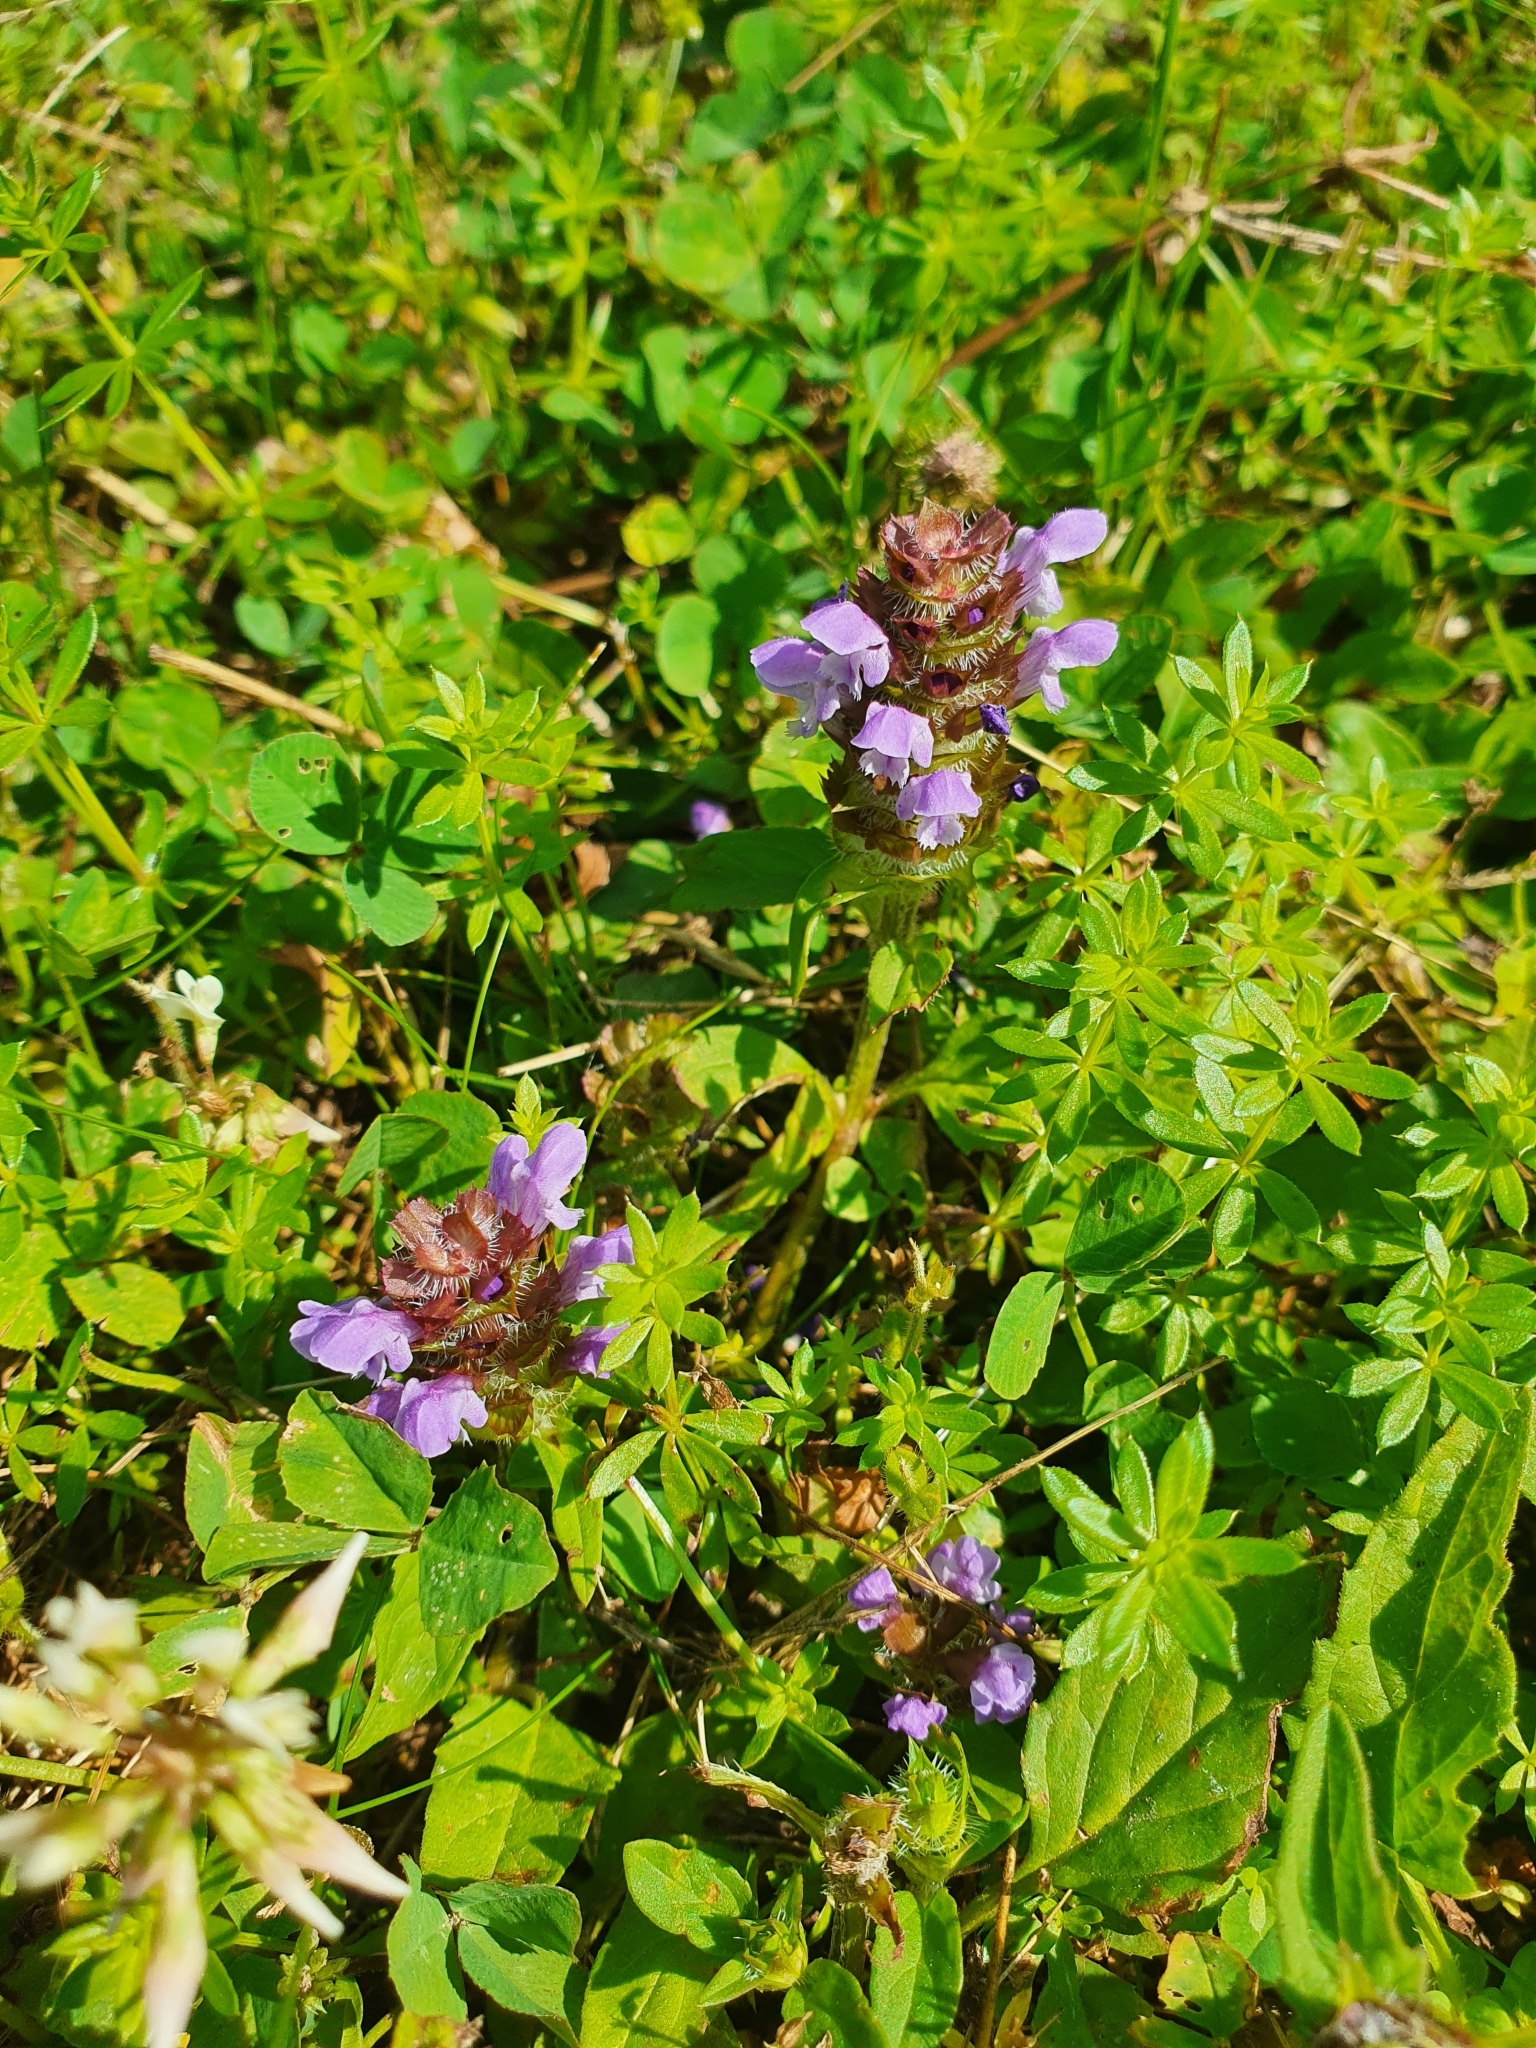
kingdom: Plantae
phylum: Tracheophyta
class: Magnoliopsida
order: Lamiales
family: Lamiaceae
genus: Prunella
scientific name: Prunella vulgaris
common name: Heal-all
